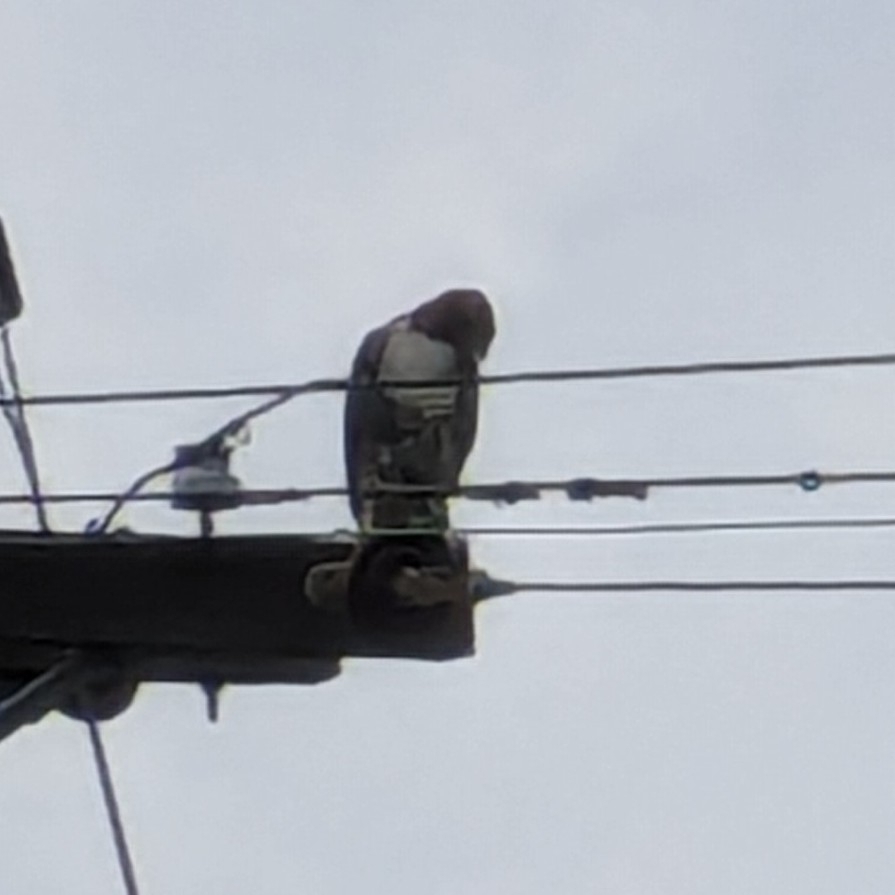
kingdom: Animalia
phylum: Chordata
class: Aves
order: Accipitriformes
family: Accipitridae
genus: Buteo
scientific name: Buteo jamaicensis
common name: Red-tailed hawk
